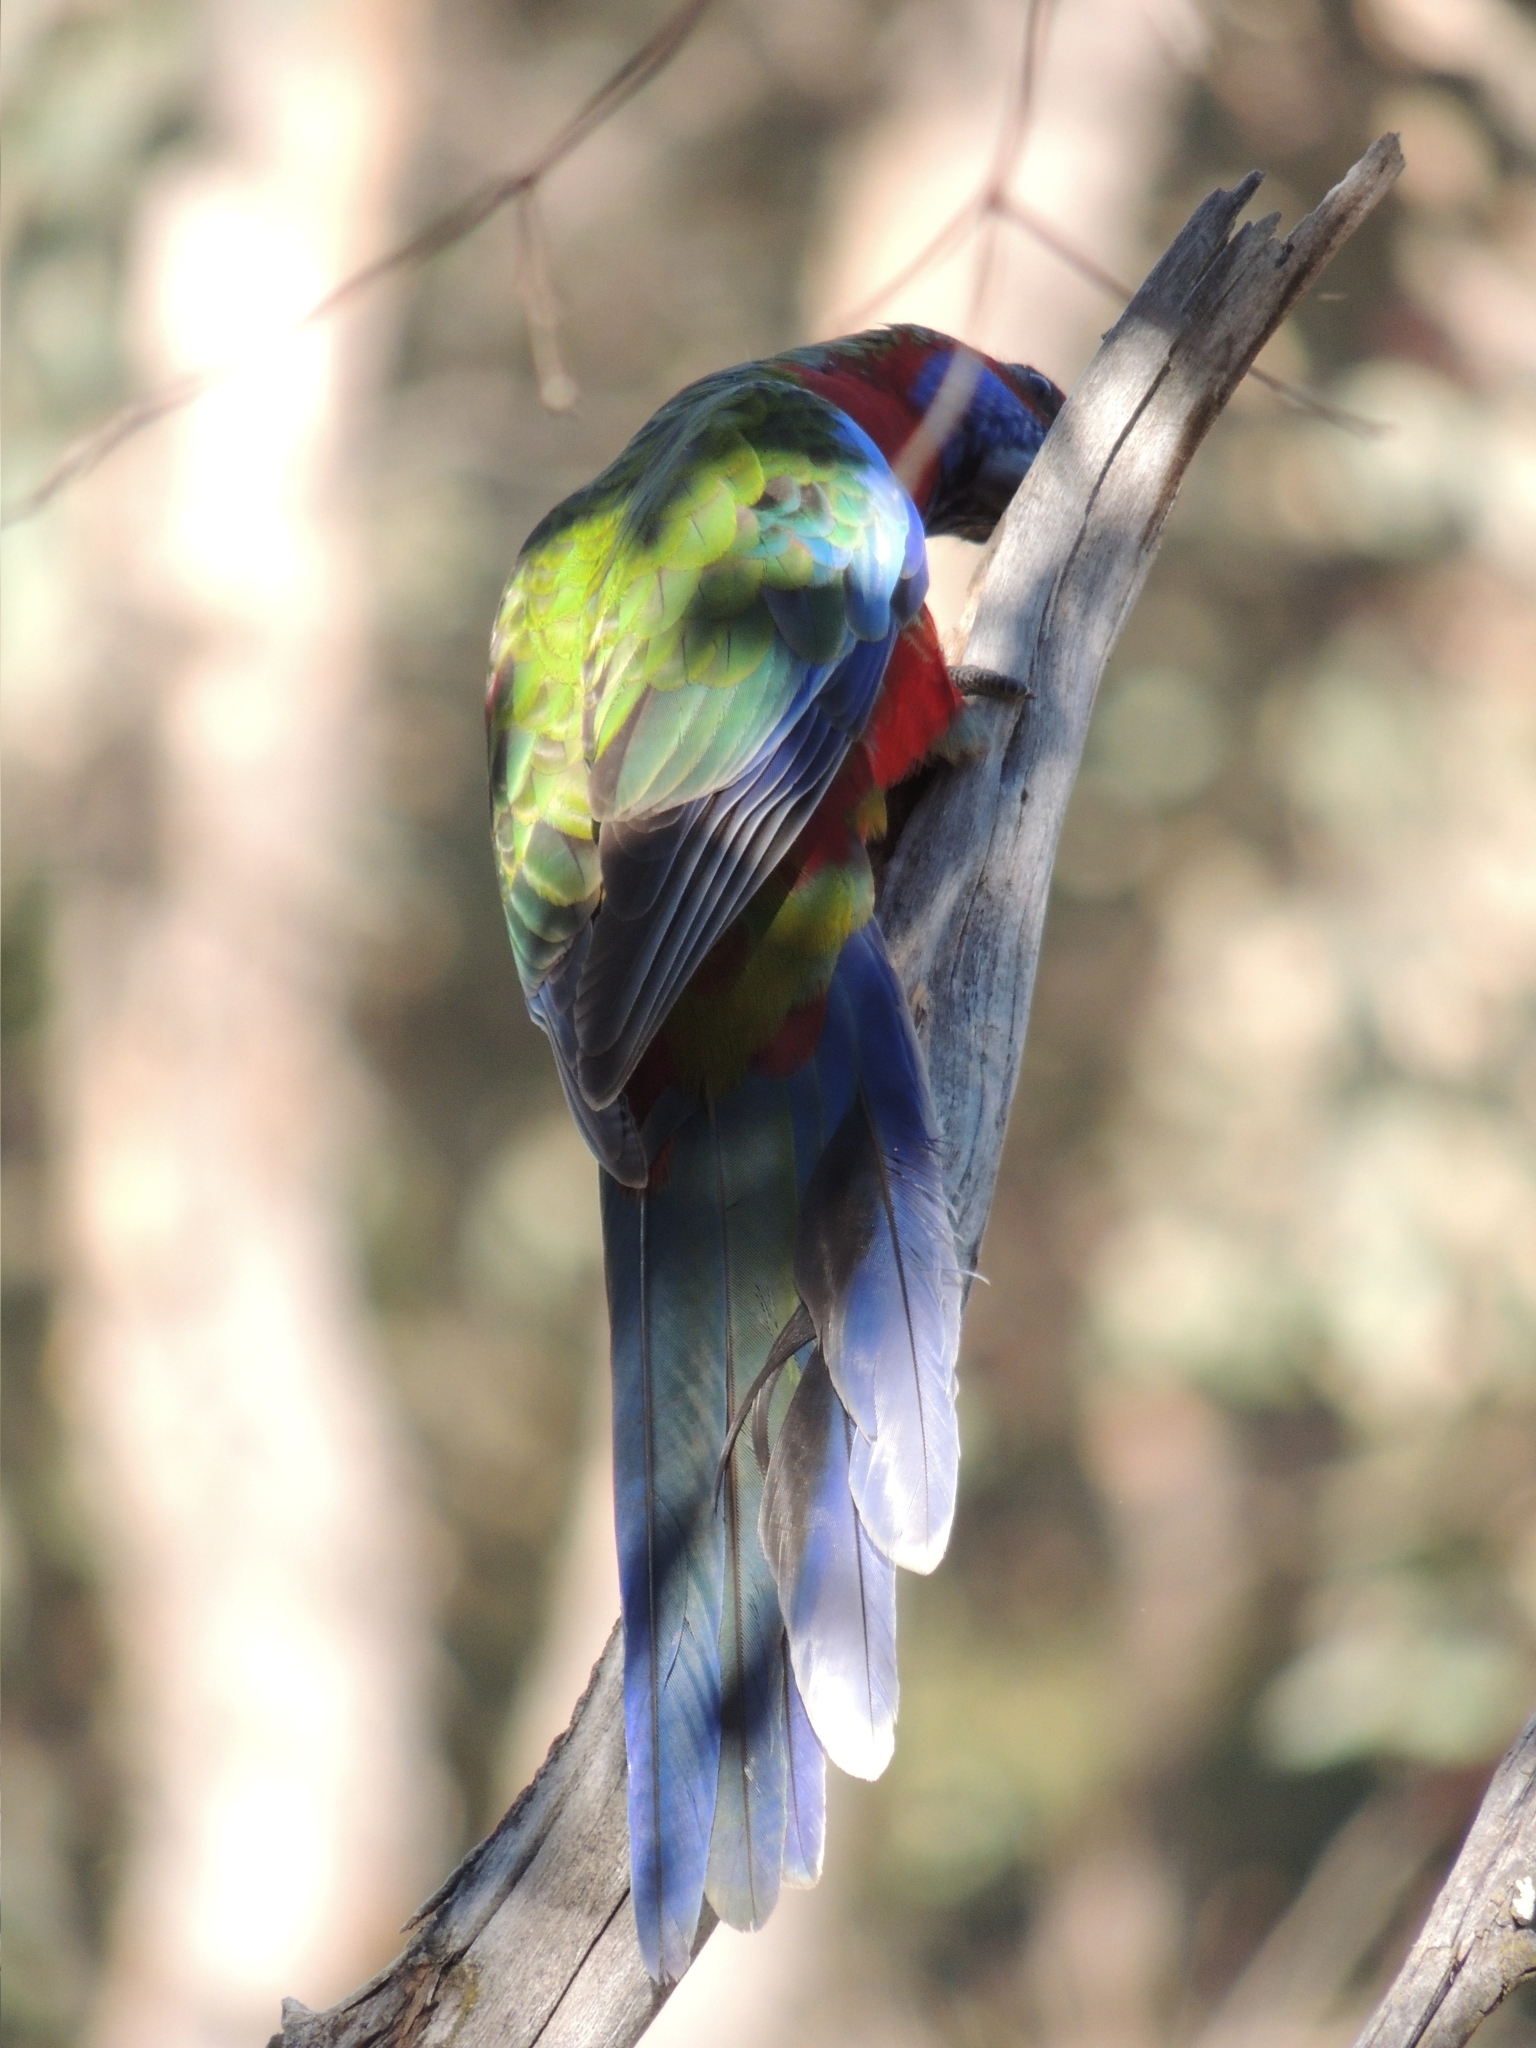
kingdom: Animalia
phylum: Chordata
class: Aves
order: Psittaciformes
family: Psittacidae
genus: Platycercus
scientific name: Platycercus elegans
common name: Crimson rosella
